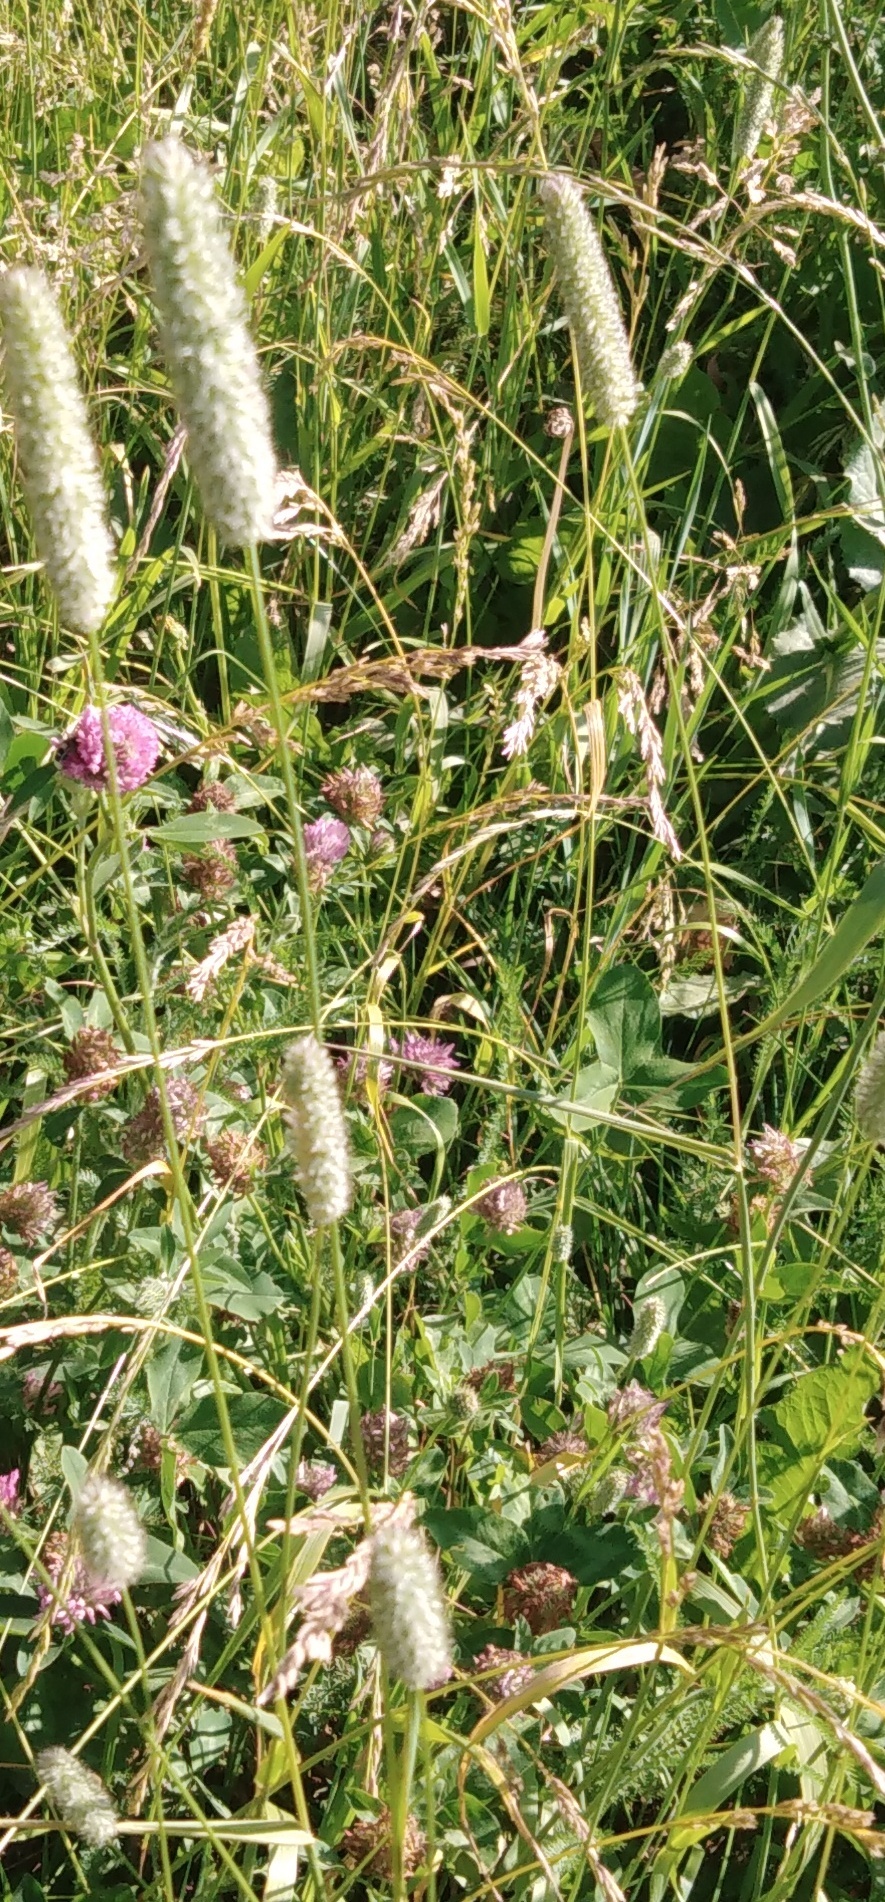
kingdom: Plantae
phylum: Tracheophyta
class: Liliopsida
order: Poales
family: Poaceae
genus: Phleum
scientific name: Phleum pratense
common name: Timothy grass
